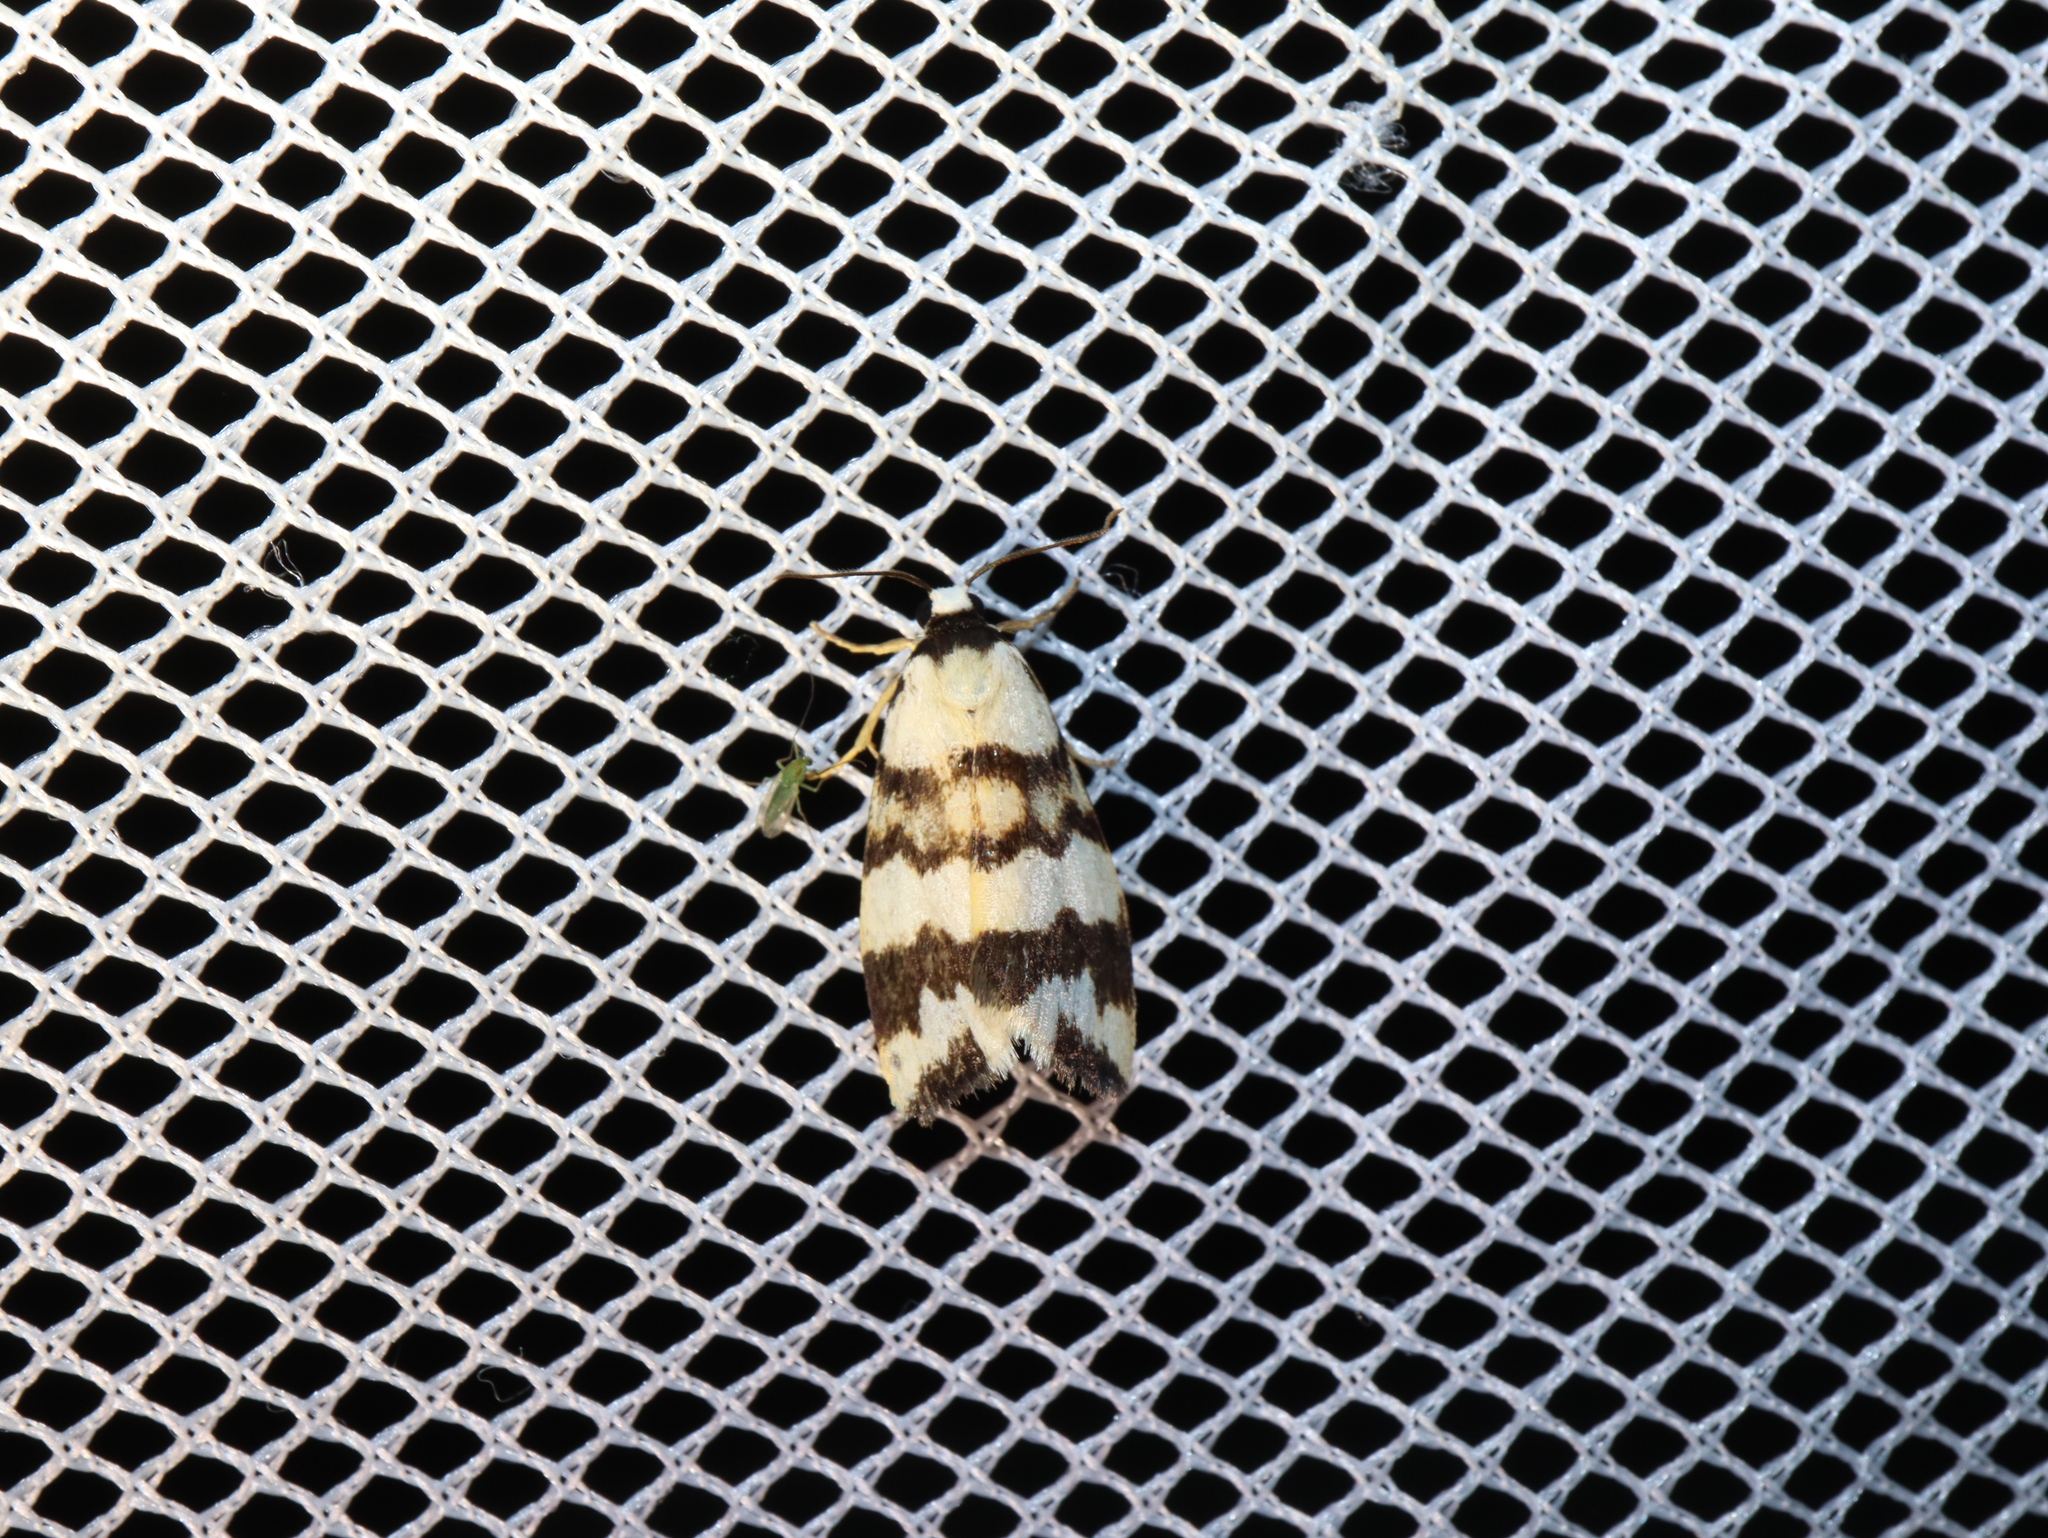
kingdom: Animalia
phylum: Arthropoda
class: Insecta
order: Lepidoptera
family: Erebidae
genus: Termessa
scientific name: Termessa gratiosa
